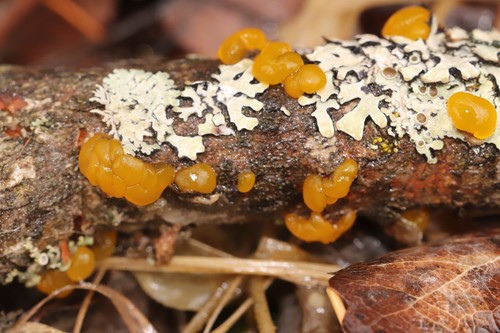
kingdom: Fungi
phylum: Basidiomycota
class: Tremellomycetes
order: Tremellales
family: Tremellaceae
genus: Tremella
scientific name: Tremella mesenterica
